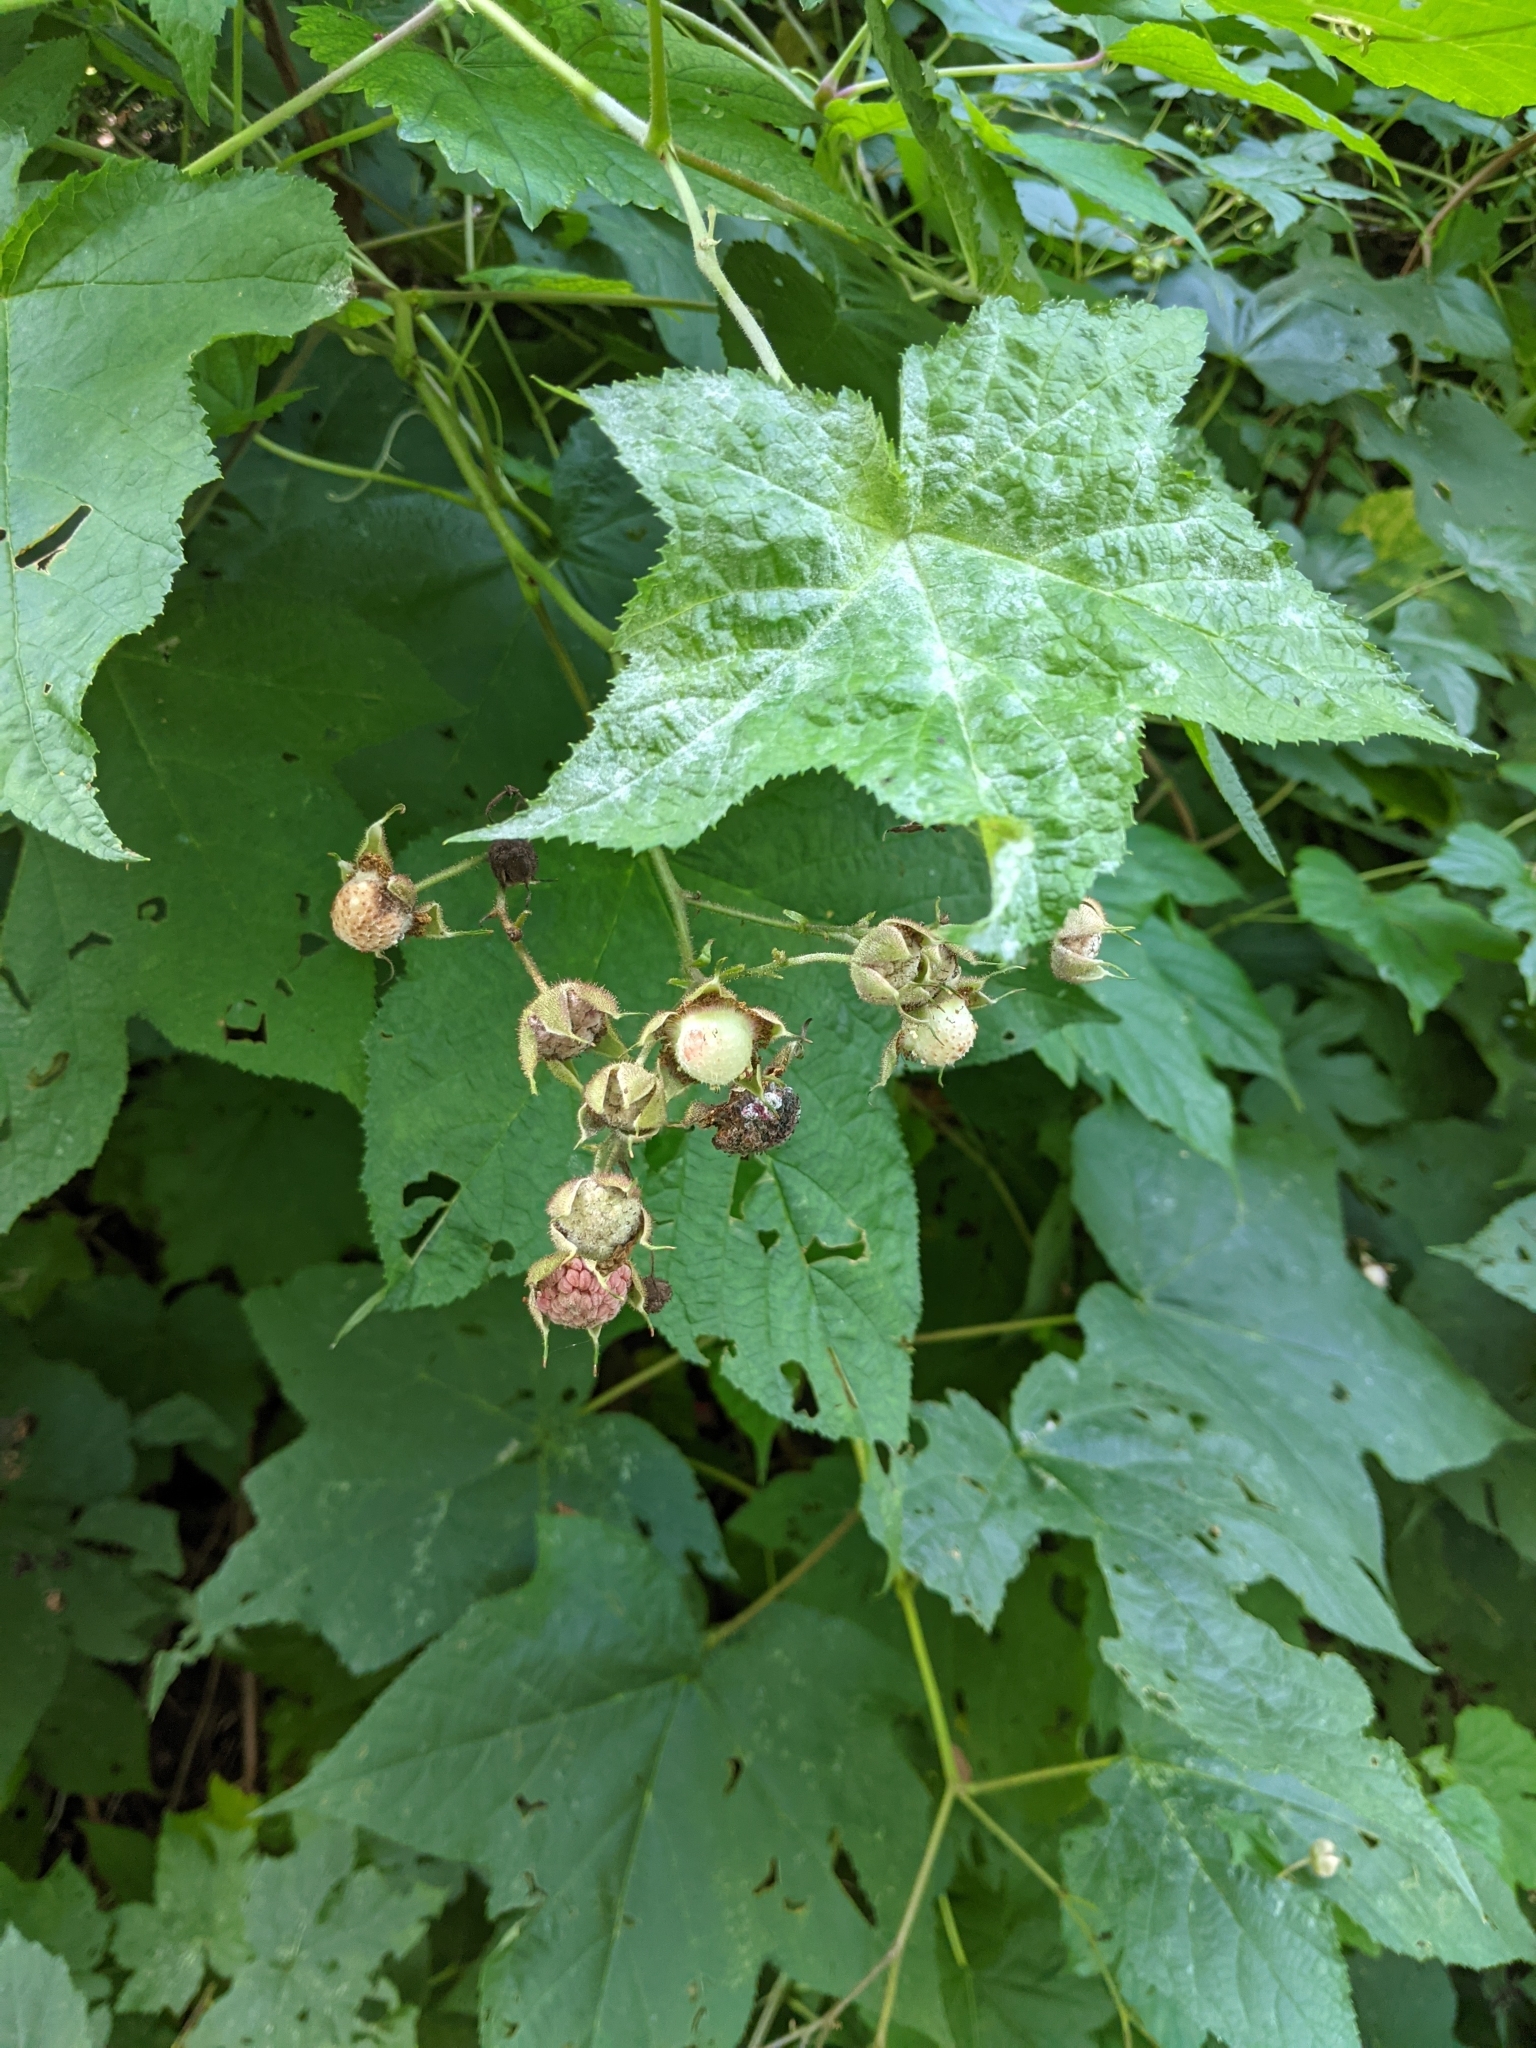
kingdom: Plantae
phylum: Tracheophyta
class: Magnoliopsida
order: Rosales
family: Rosaceae
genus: Rubus
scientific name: Rubus odoratus
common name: Purple-flowered raspberry
